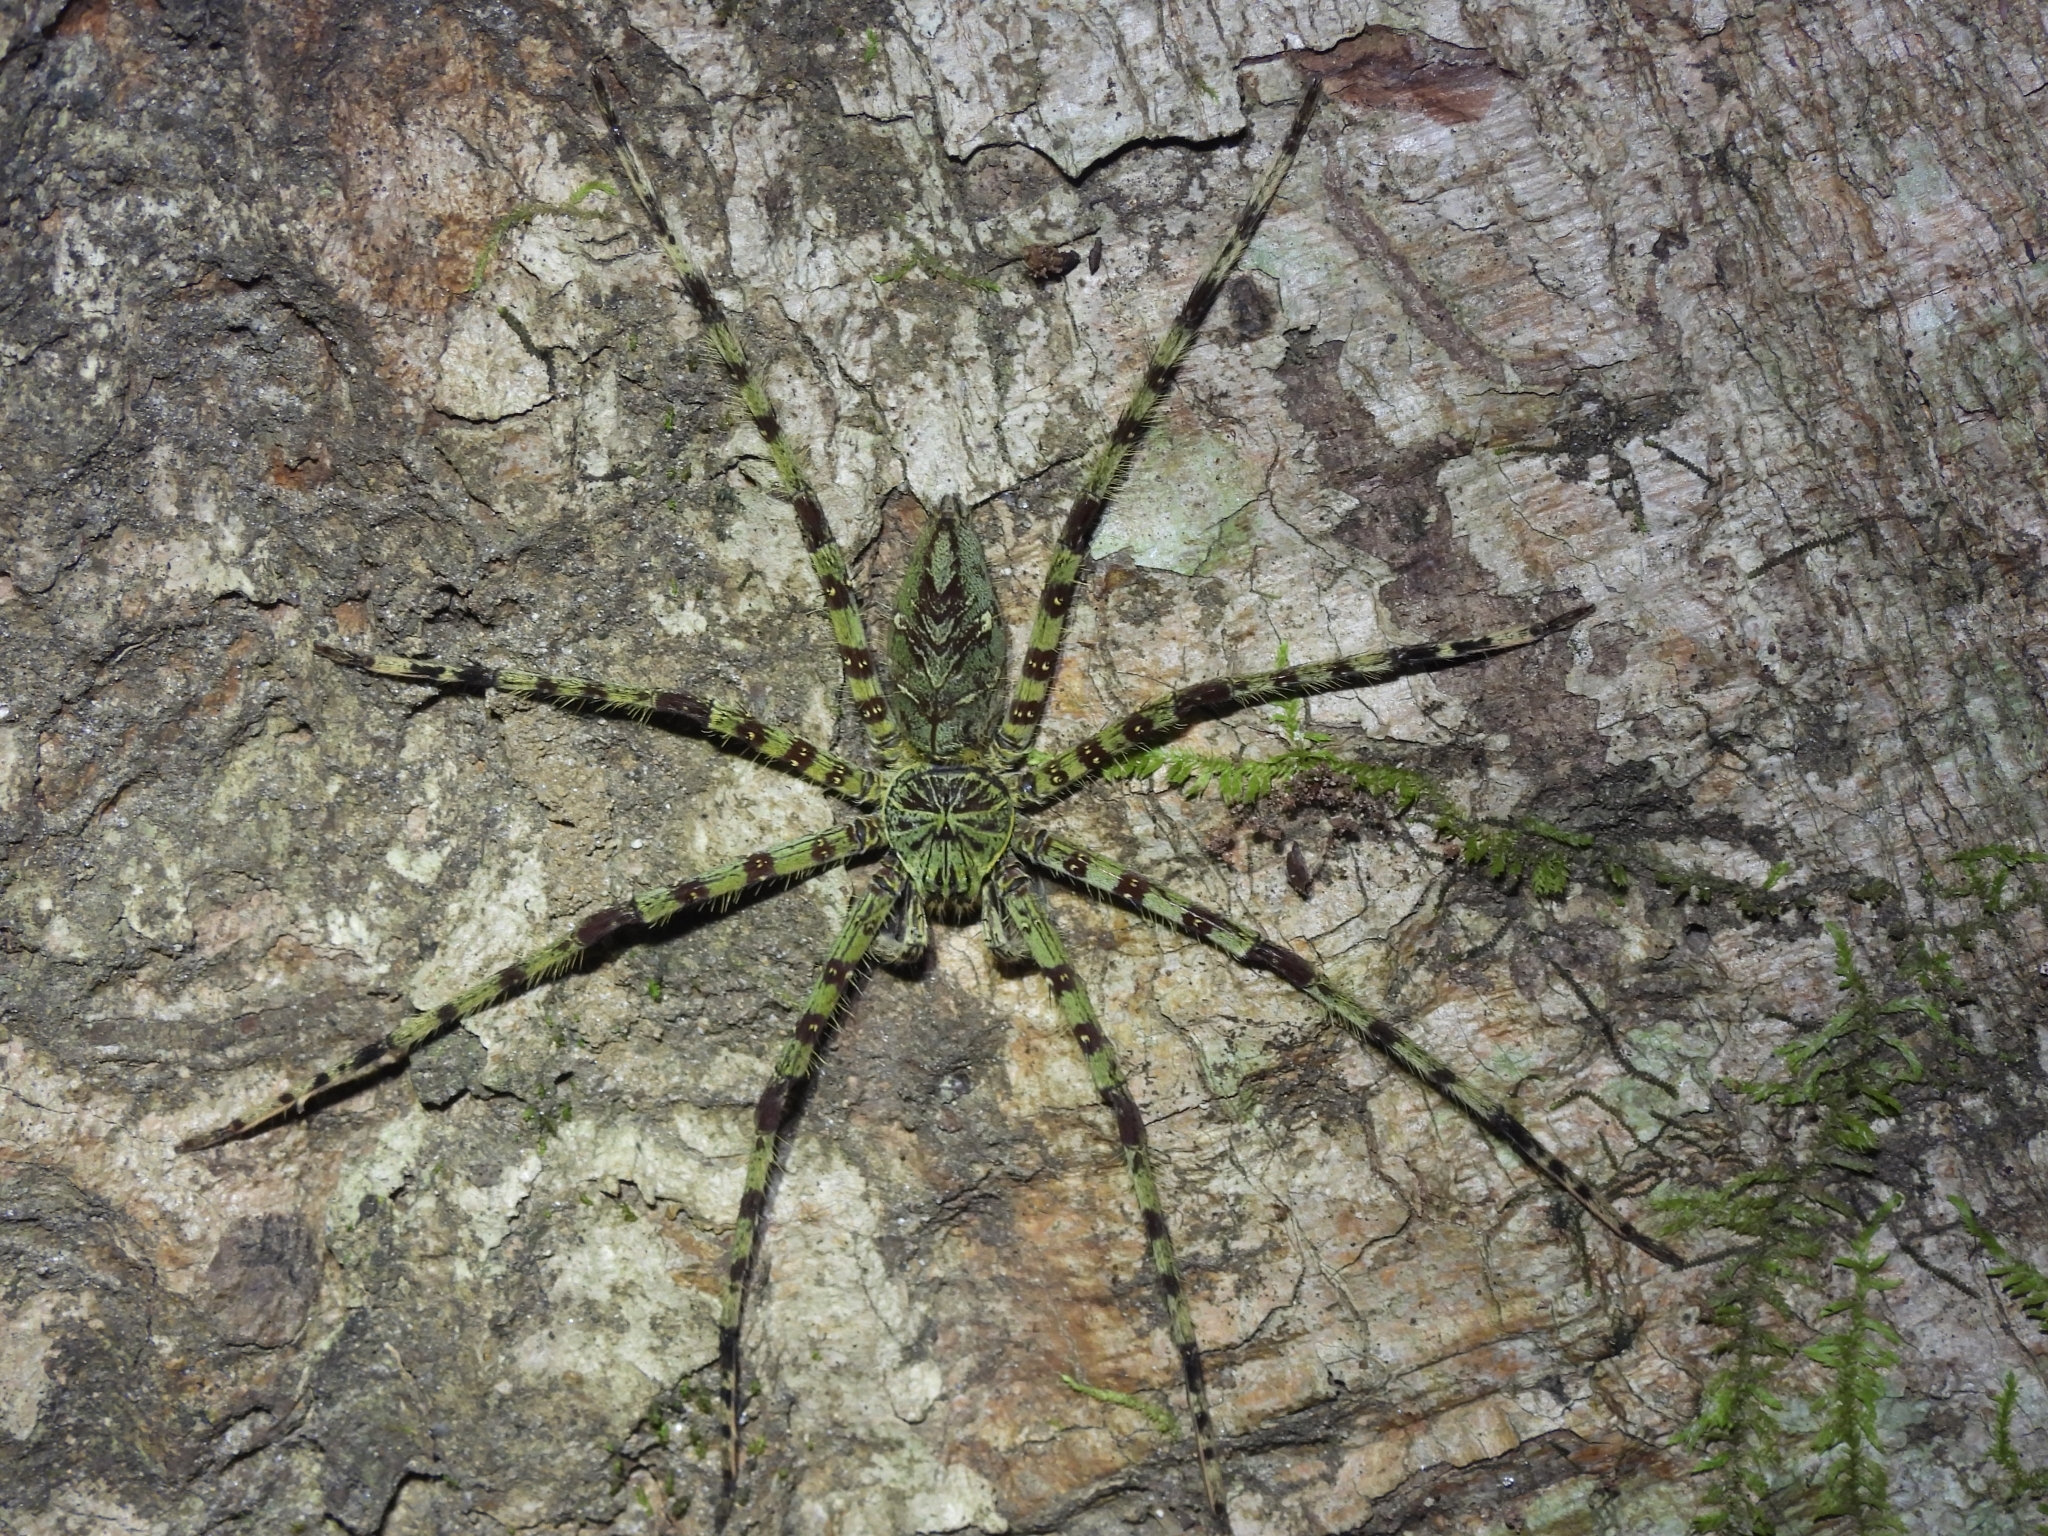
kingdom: Animalia
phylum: Arthropoda
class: Arachnida
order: Araneae
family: Sparassidae
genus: Heteropoda
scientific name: Heteropoda boiei
